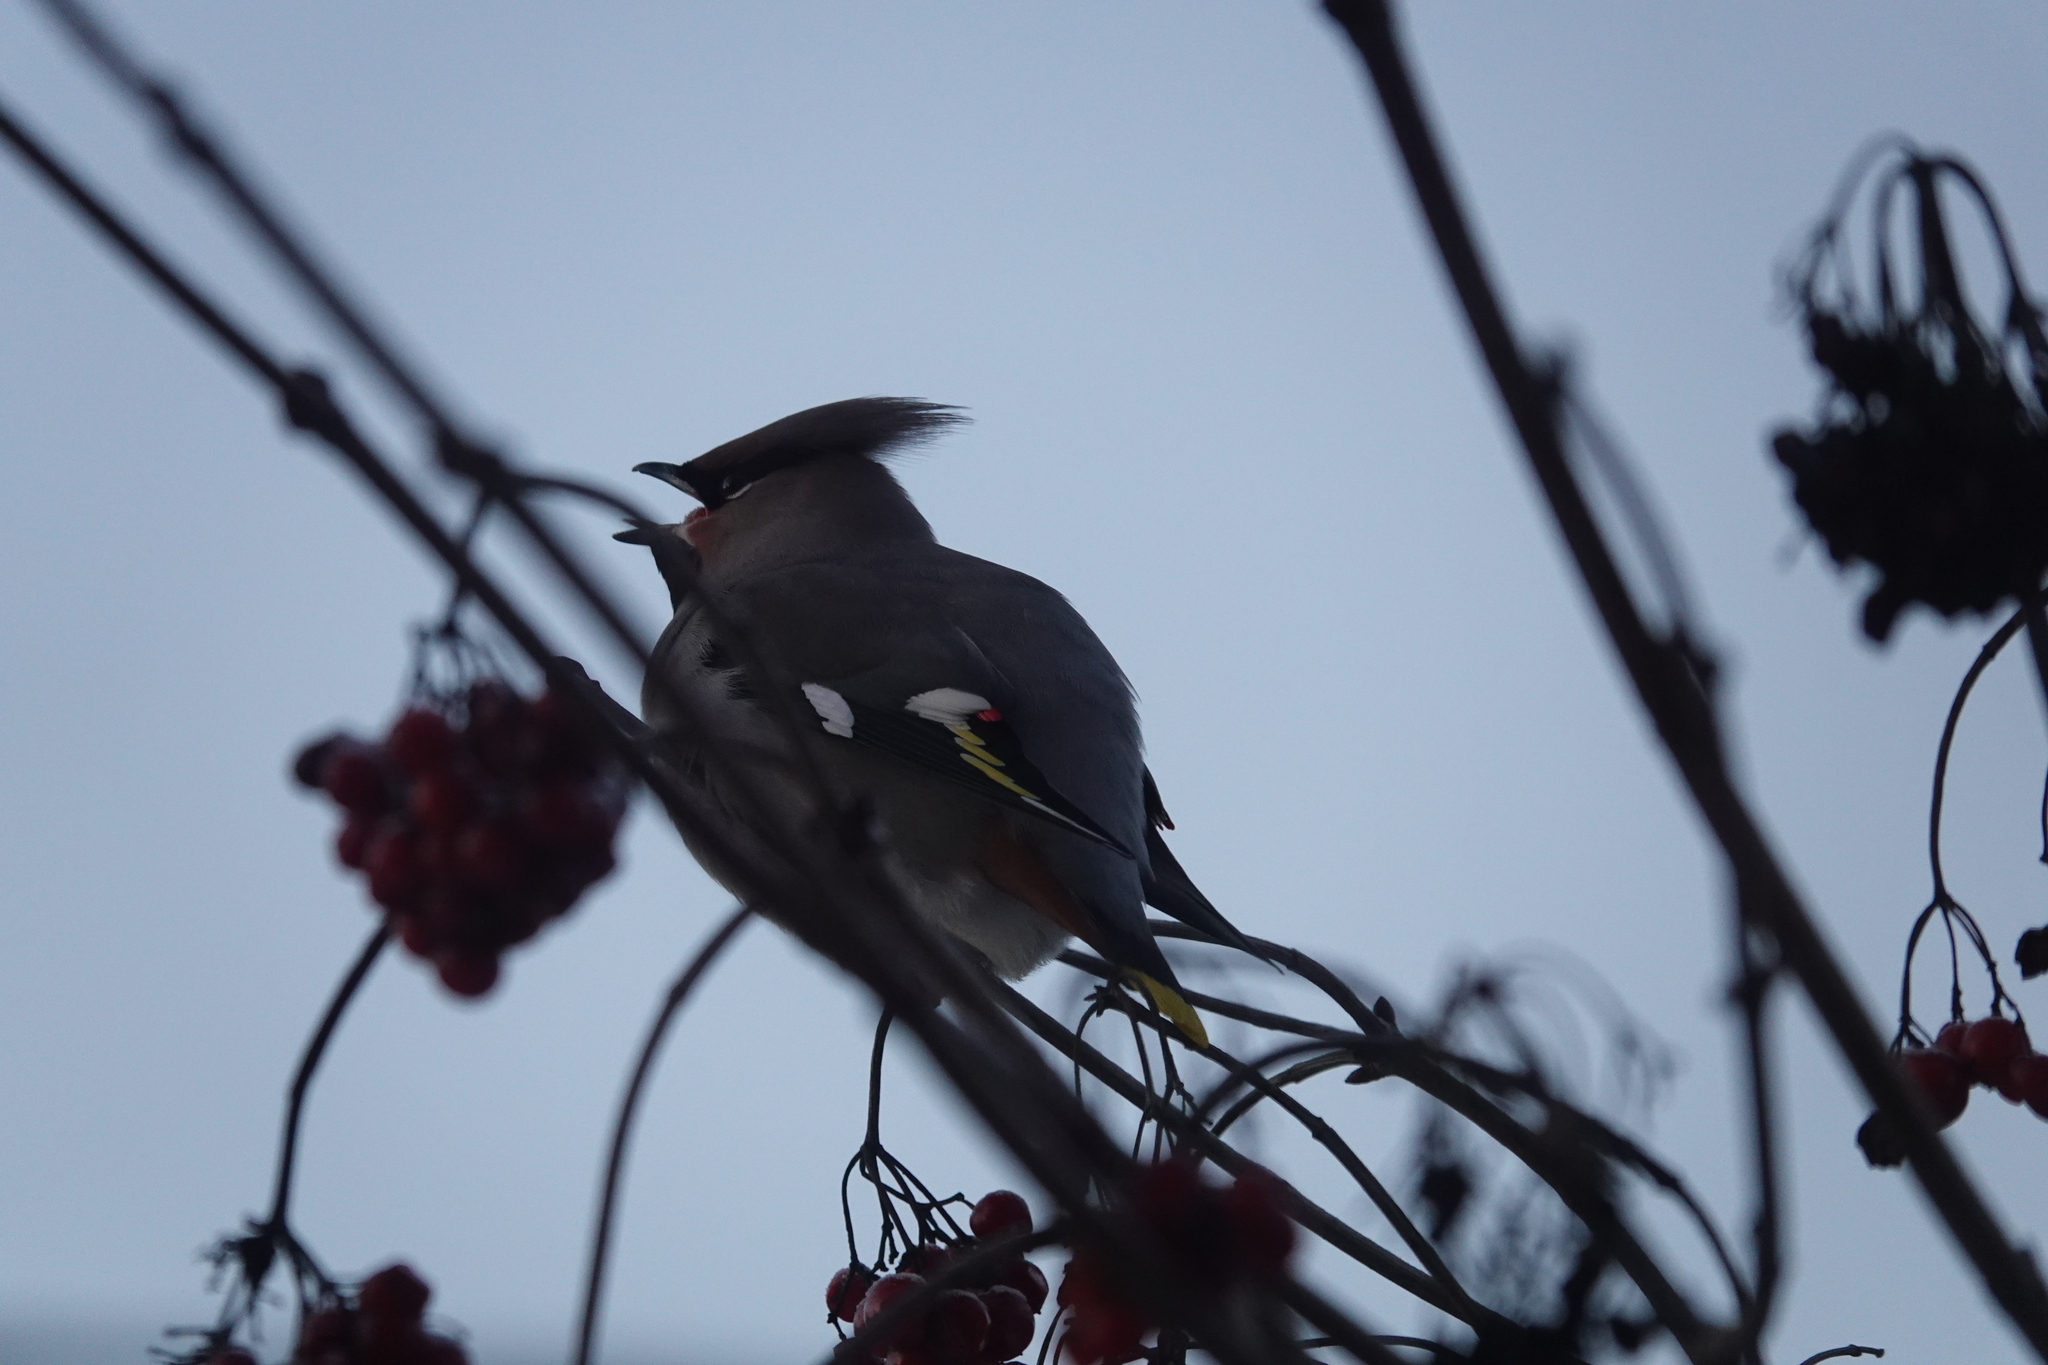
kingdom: Animalia
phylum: Chordata
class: Aves
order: Passeriformes
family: Bombycillidae
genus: Bombycilla
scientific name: Bombycilla garrulus
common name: Bohemian waxwing
